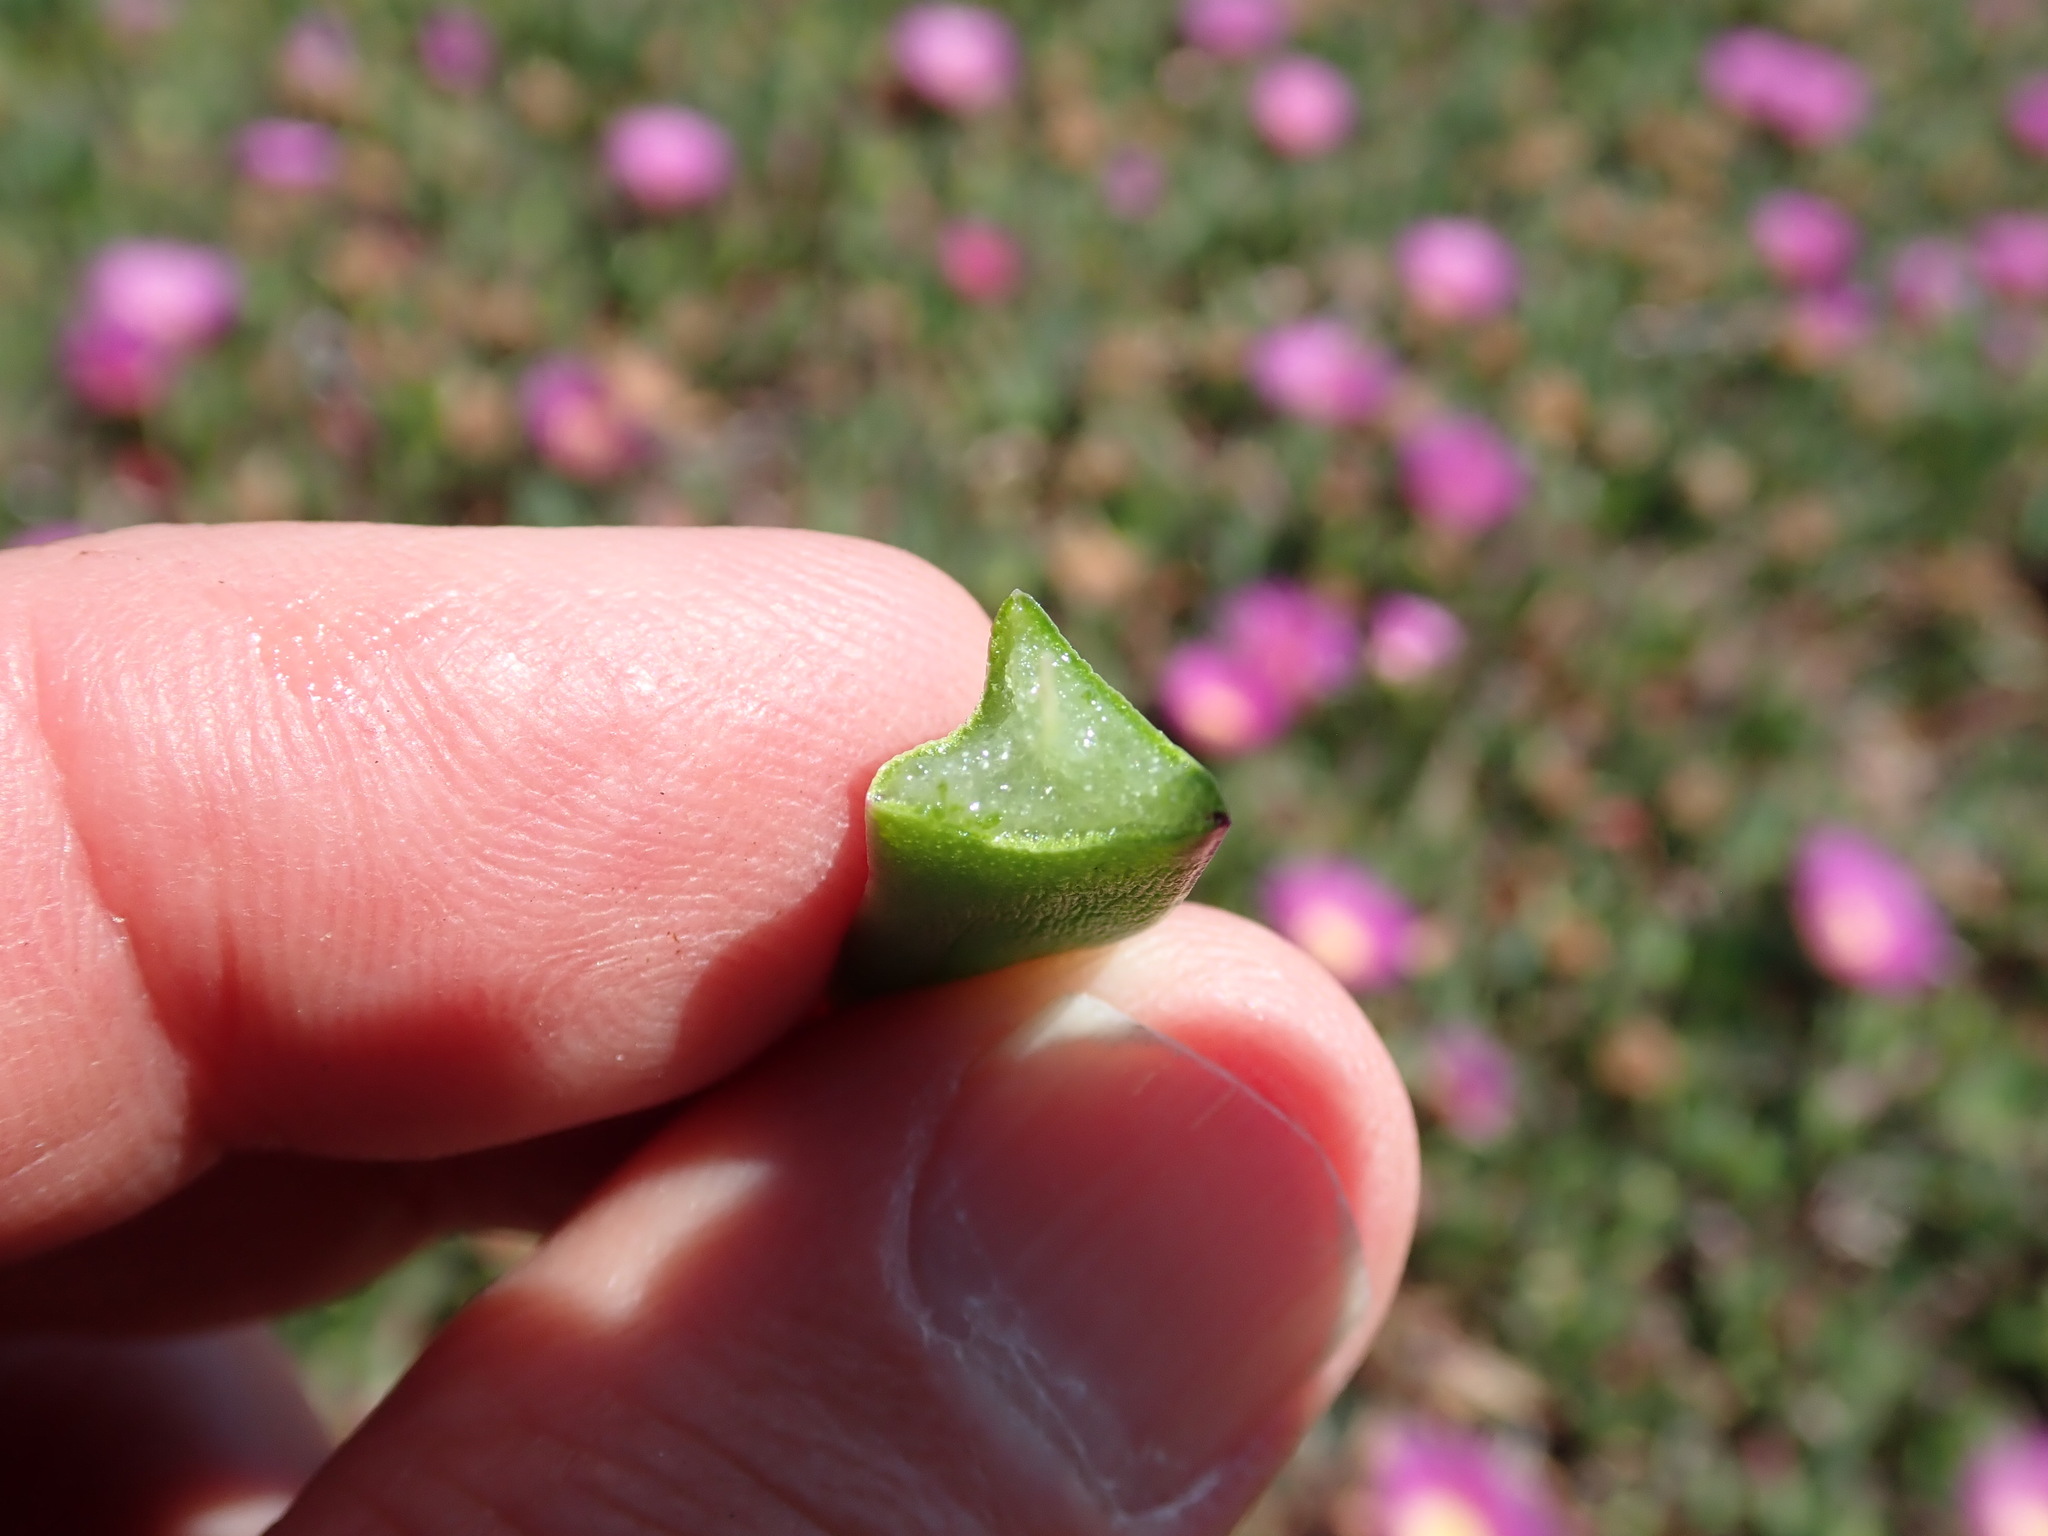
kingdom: Plantae
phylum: Tracheophyta
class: Magnoliopsida
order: Caryophyllales
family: Aizoaceae
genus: Carpobrotus
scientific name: Carpobrotus chilensis
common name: Sea fig
